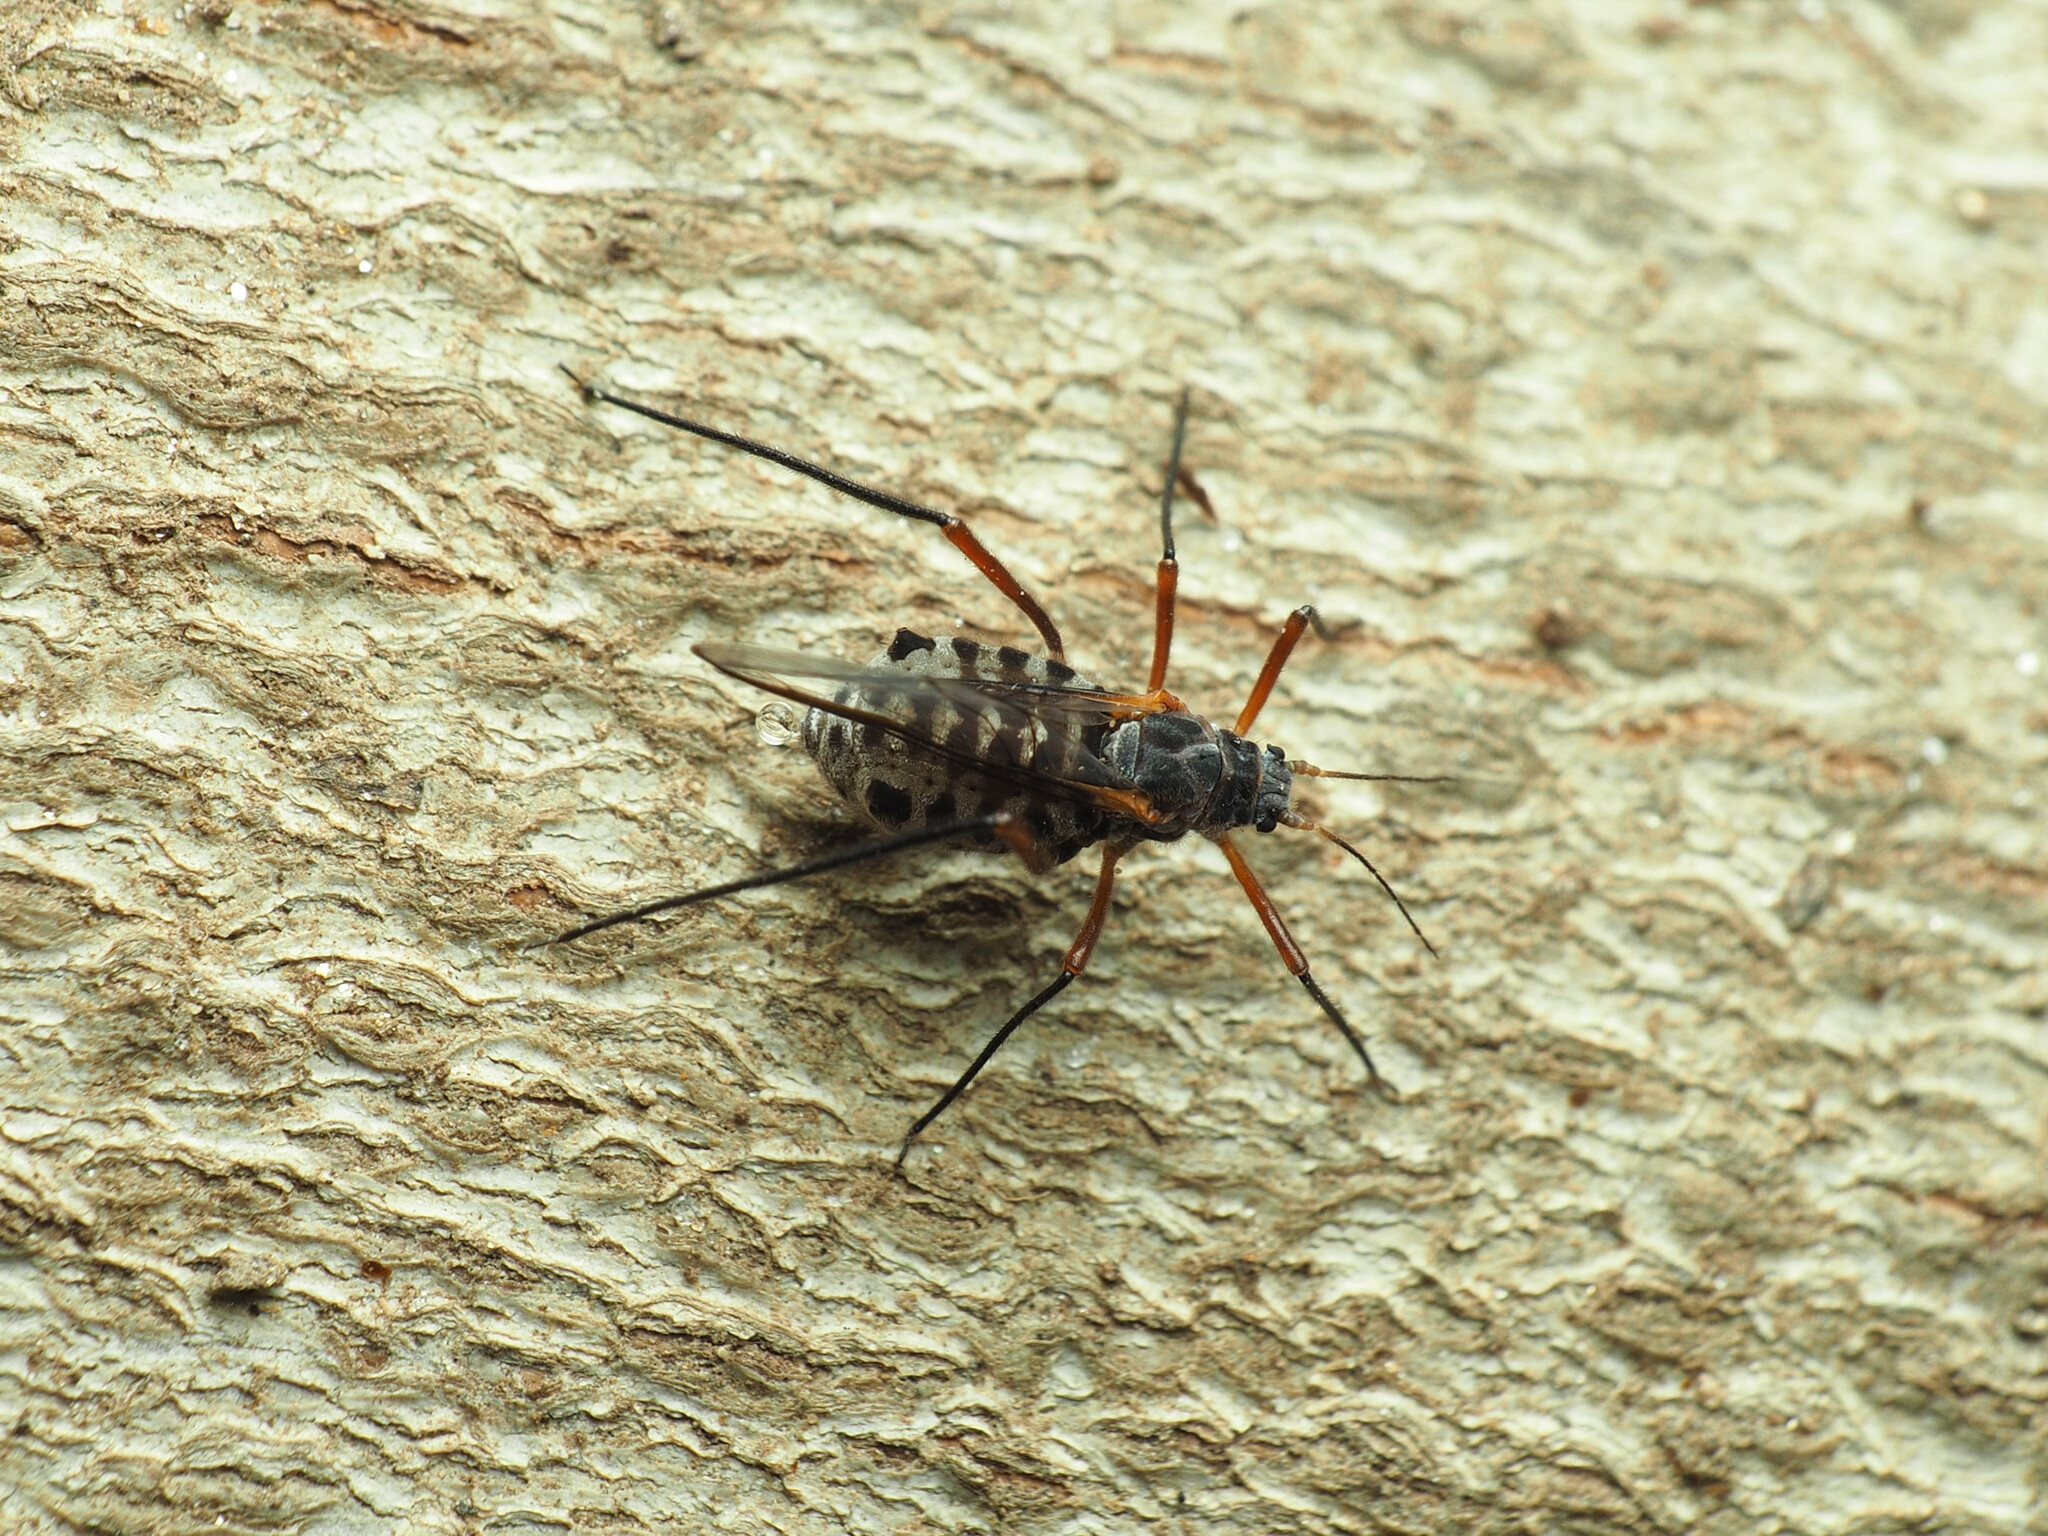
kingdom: Animalia
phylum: Arthropoda
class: Insecta
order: Hemiptera
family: Aphididae
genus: Longistigma
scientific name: Longistigma caryae
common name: Giant bark aphid
